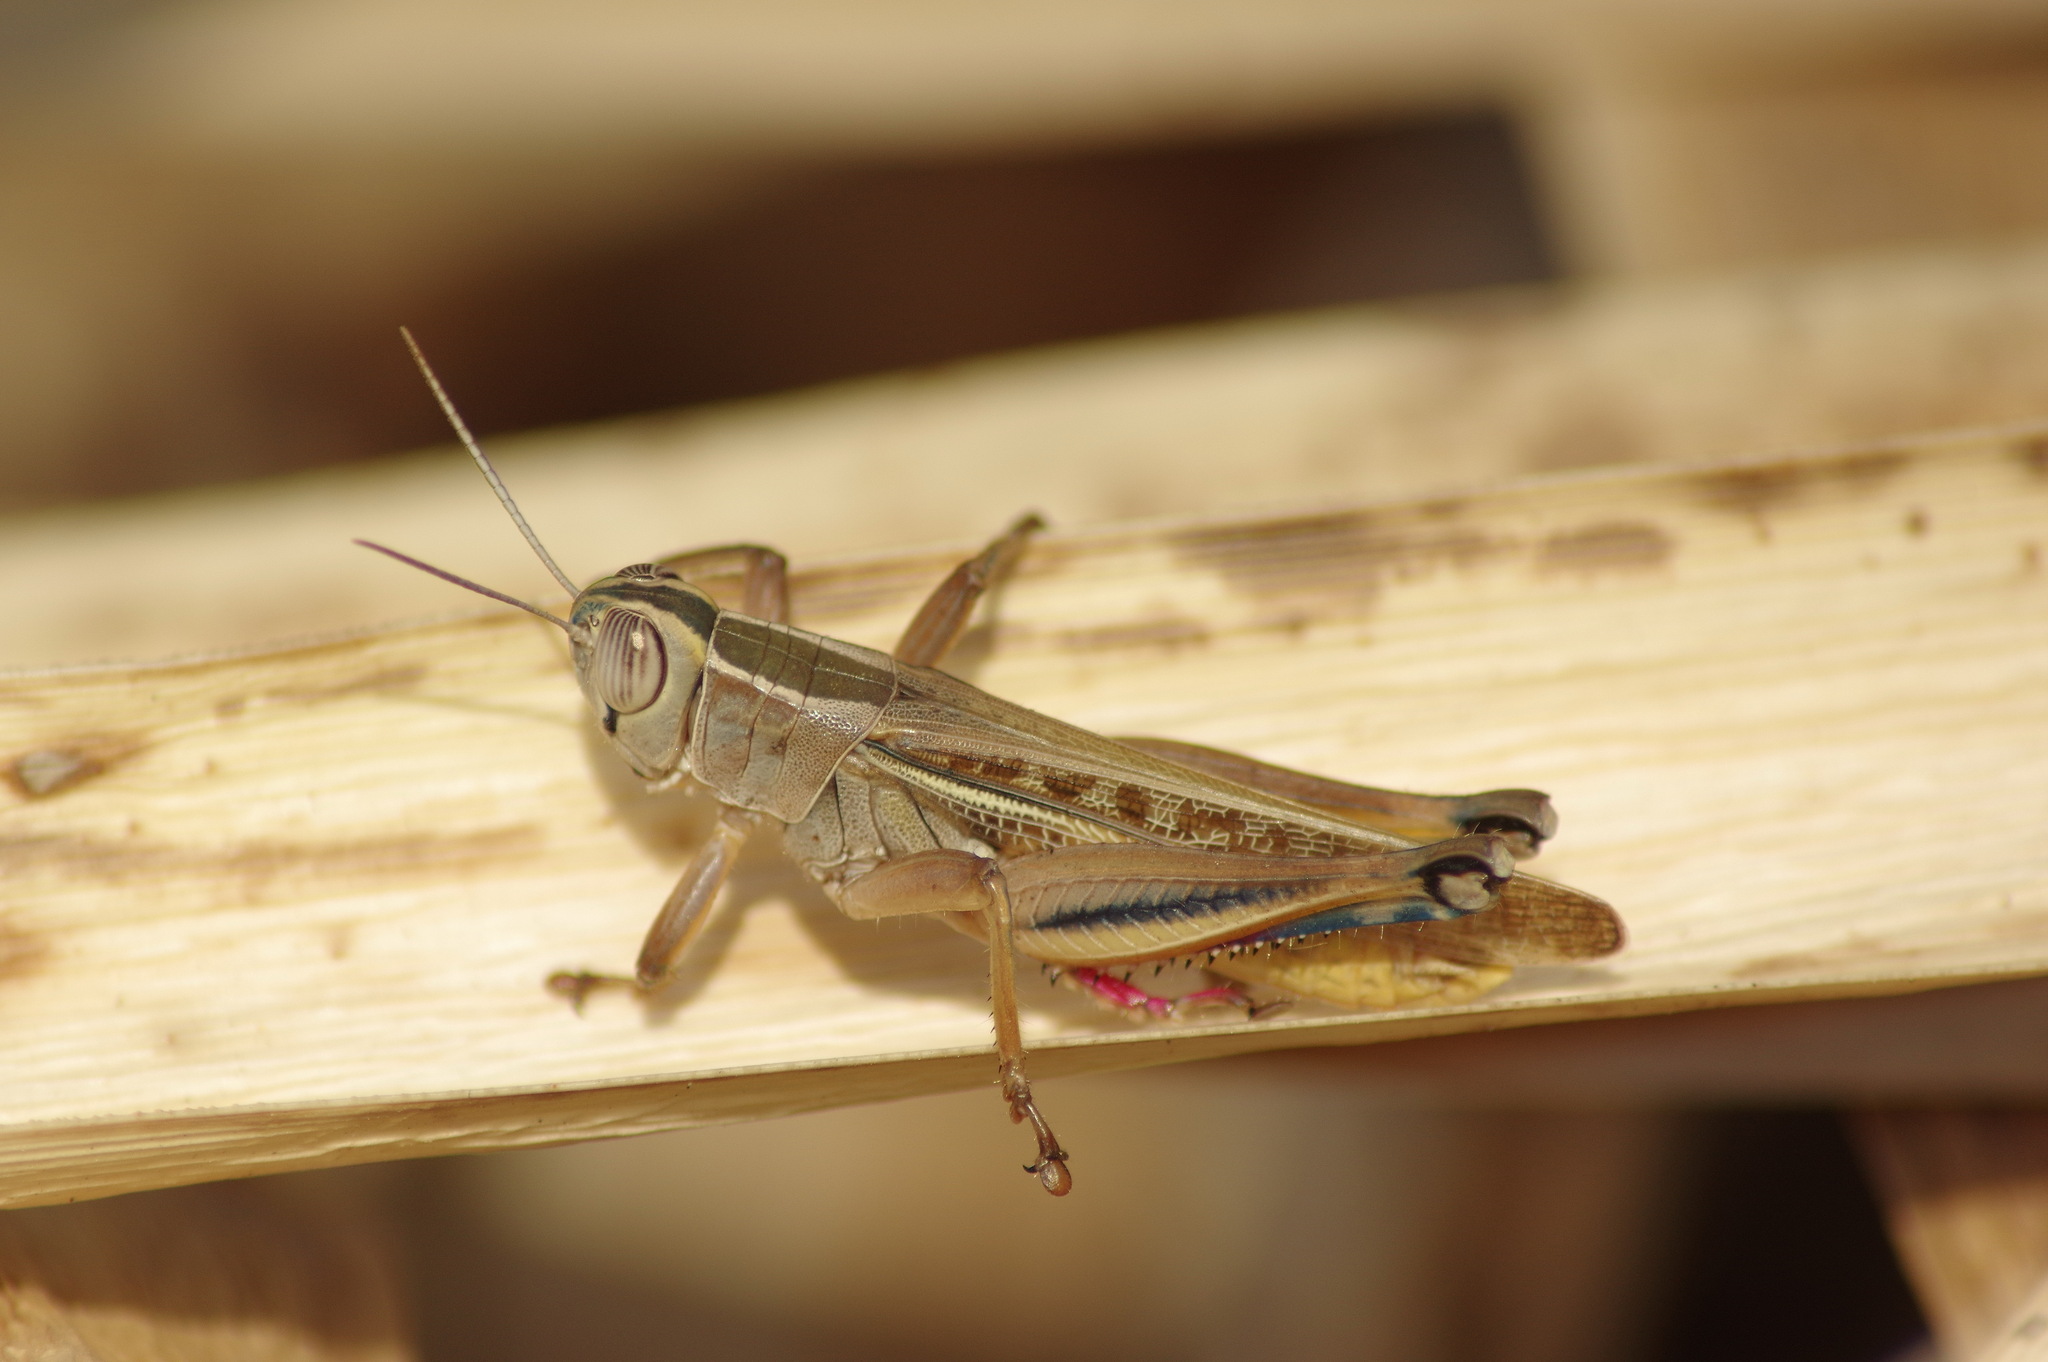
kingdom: Animalia
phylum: Arthropoda
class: Insecta
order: Orthoptera
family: Acrididae
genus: Eyprepocnemis
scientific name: Eyprepocnemis plorans
